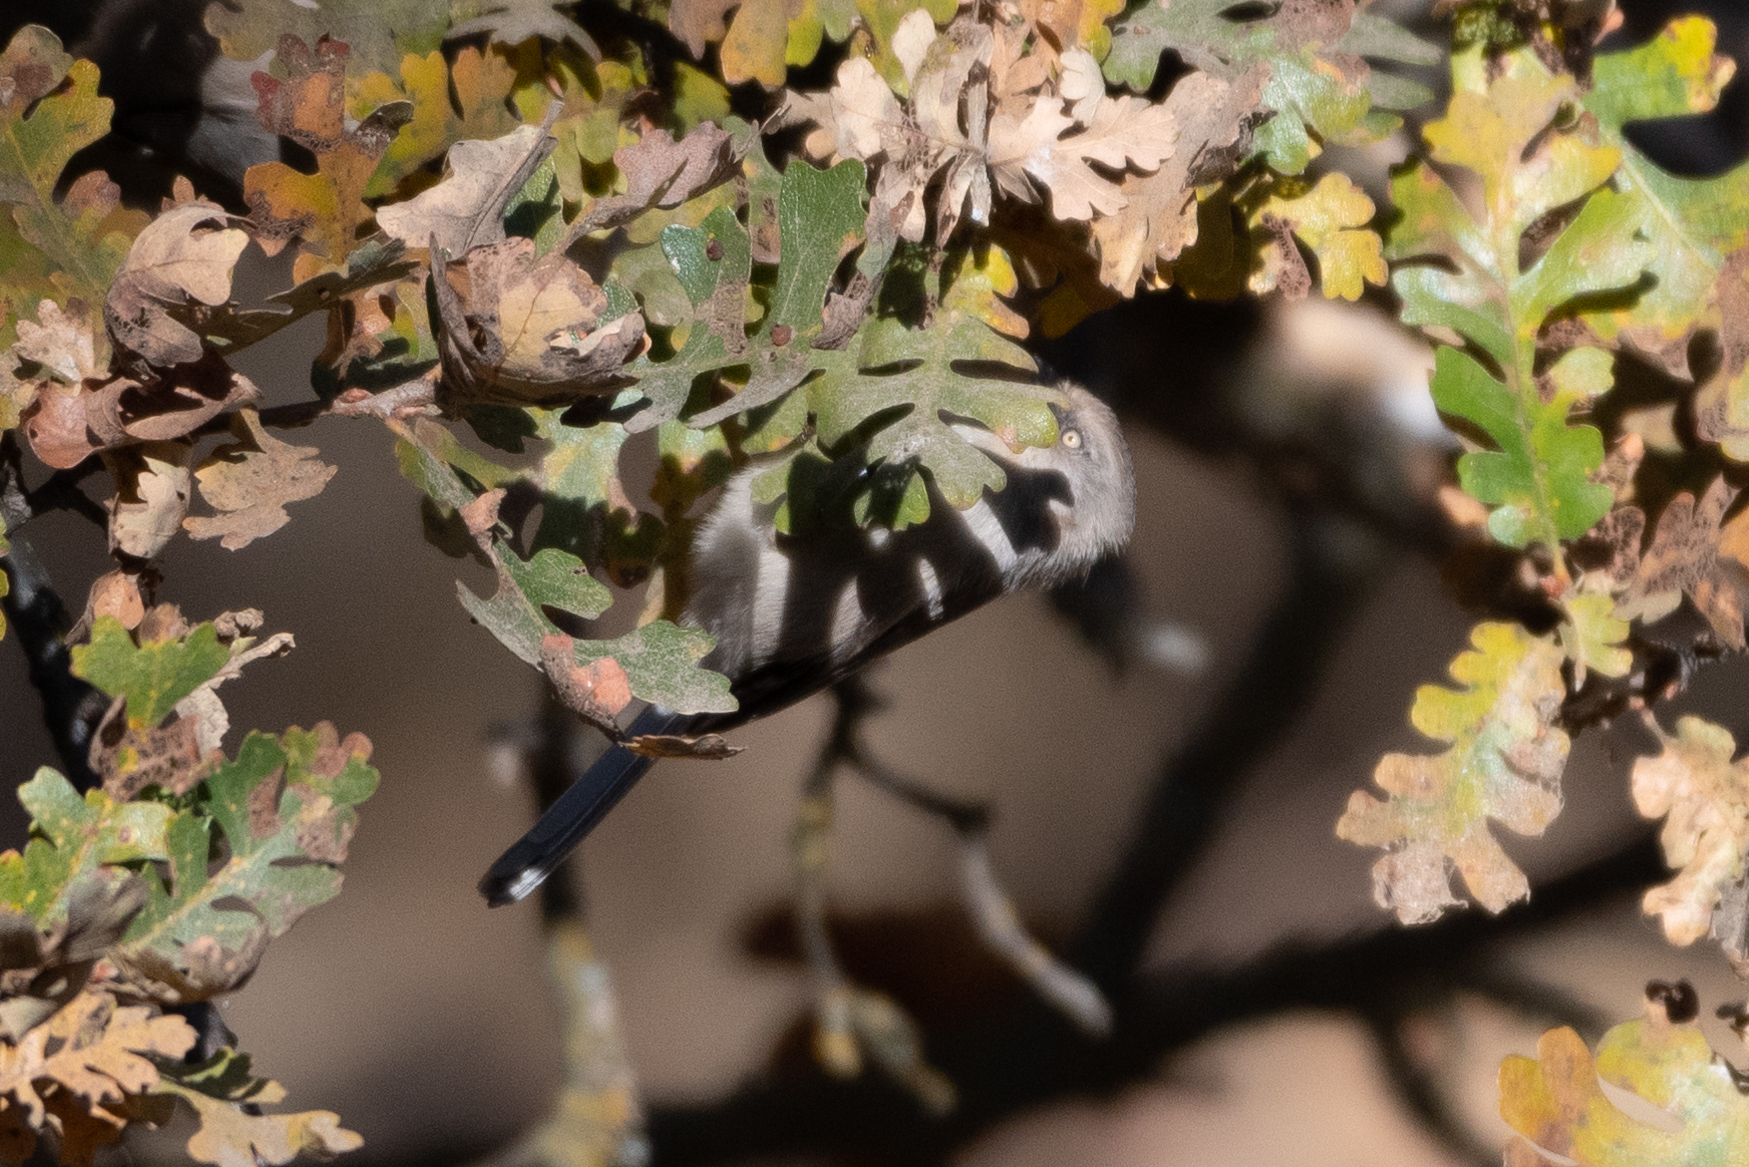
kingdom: Animalia
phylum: Chordata
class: Aves
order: Passeriformes
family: Aegithalidae
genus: Psaltriparus
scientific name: Psaltriparus minimus
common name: American bushtit
